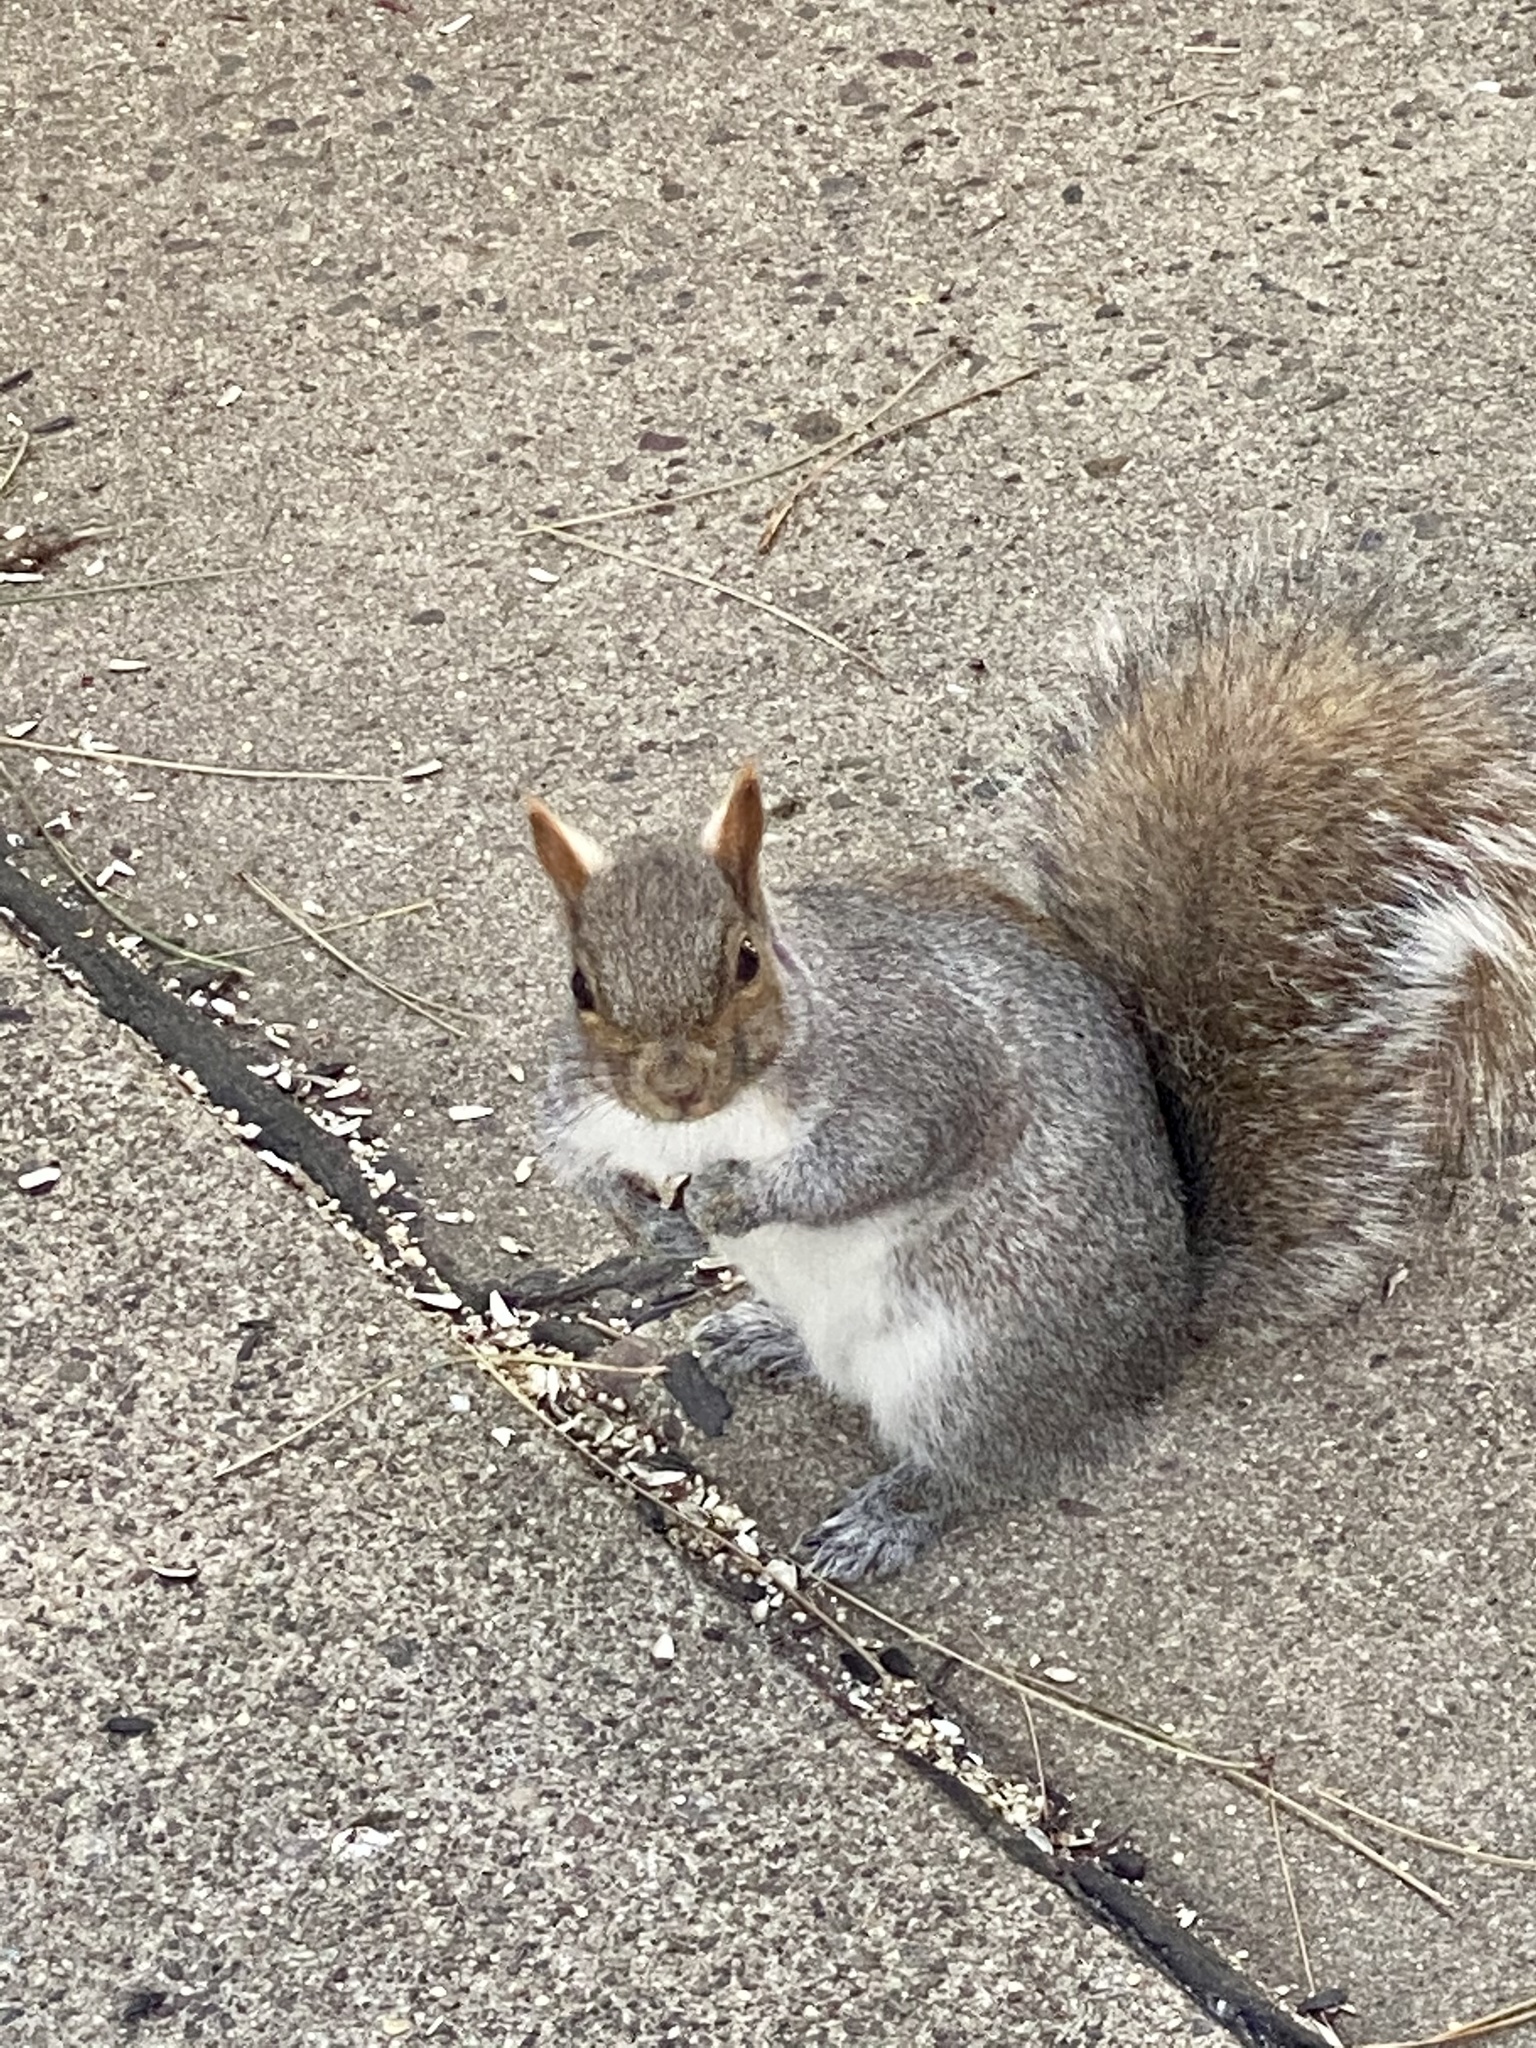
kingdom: Animalia
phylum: Chordata
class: Mammalia
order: Rodentia
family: Sciuridae
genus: Sciurus
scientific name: Sciurus carolinensis
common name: Eastern gray squirrel
